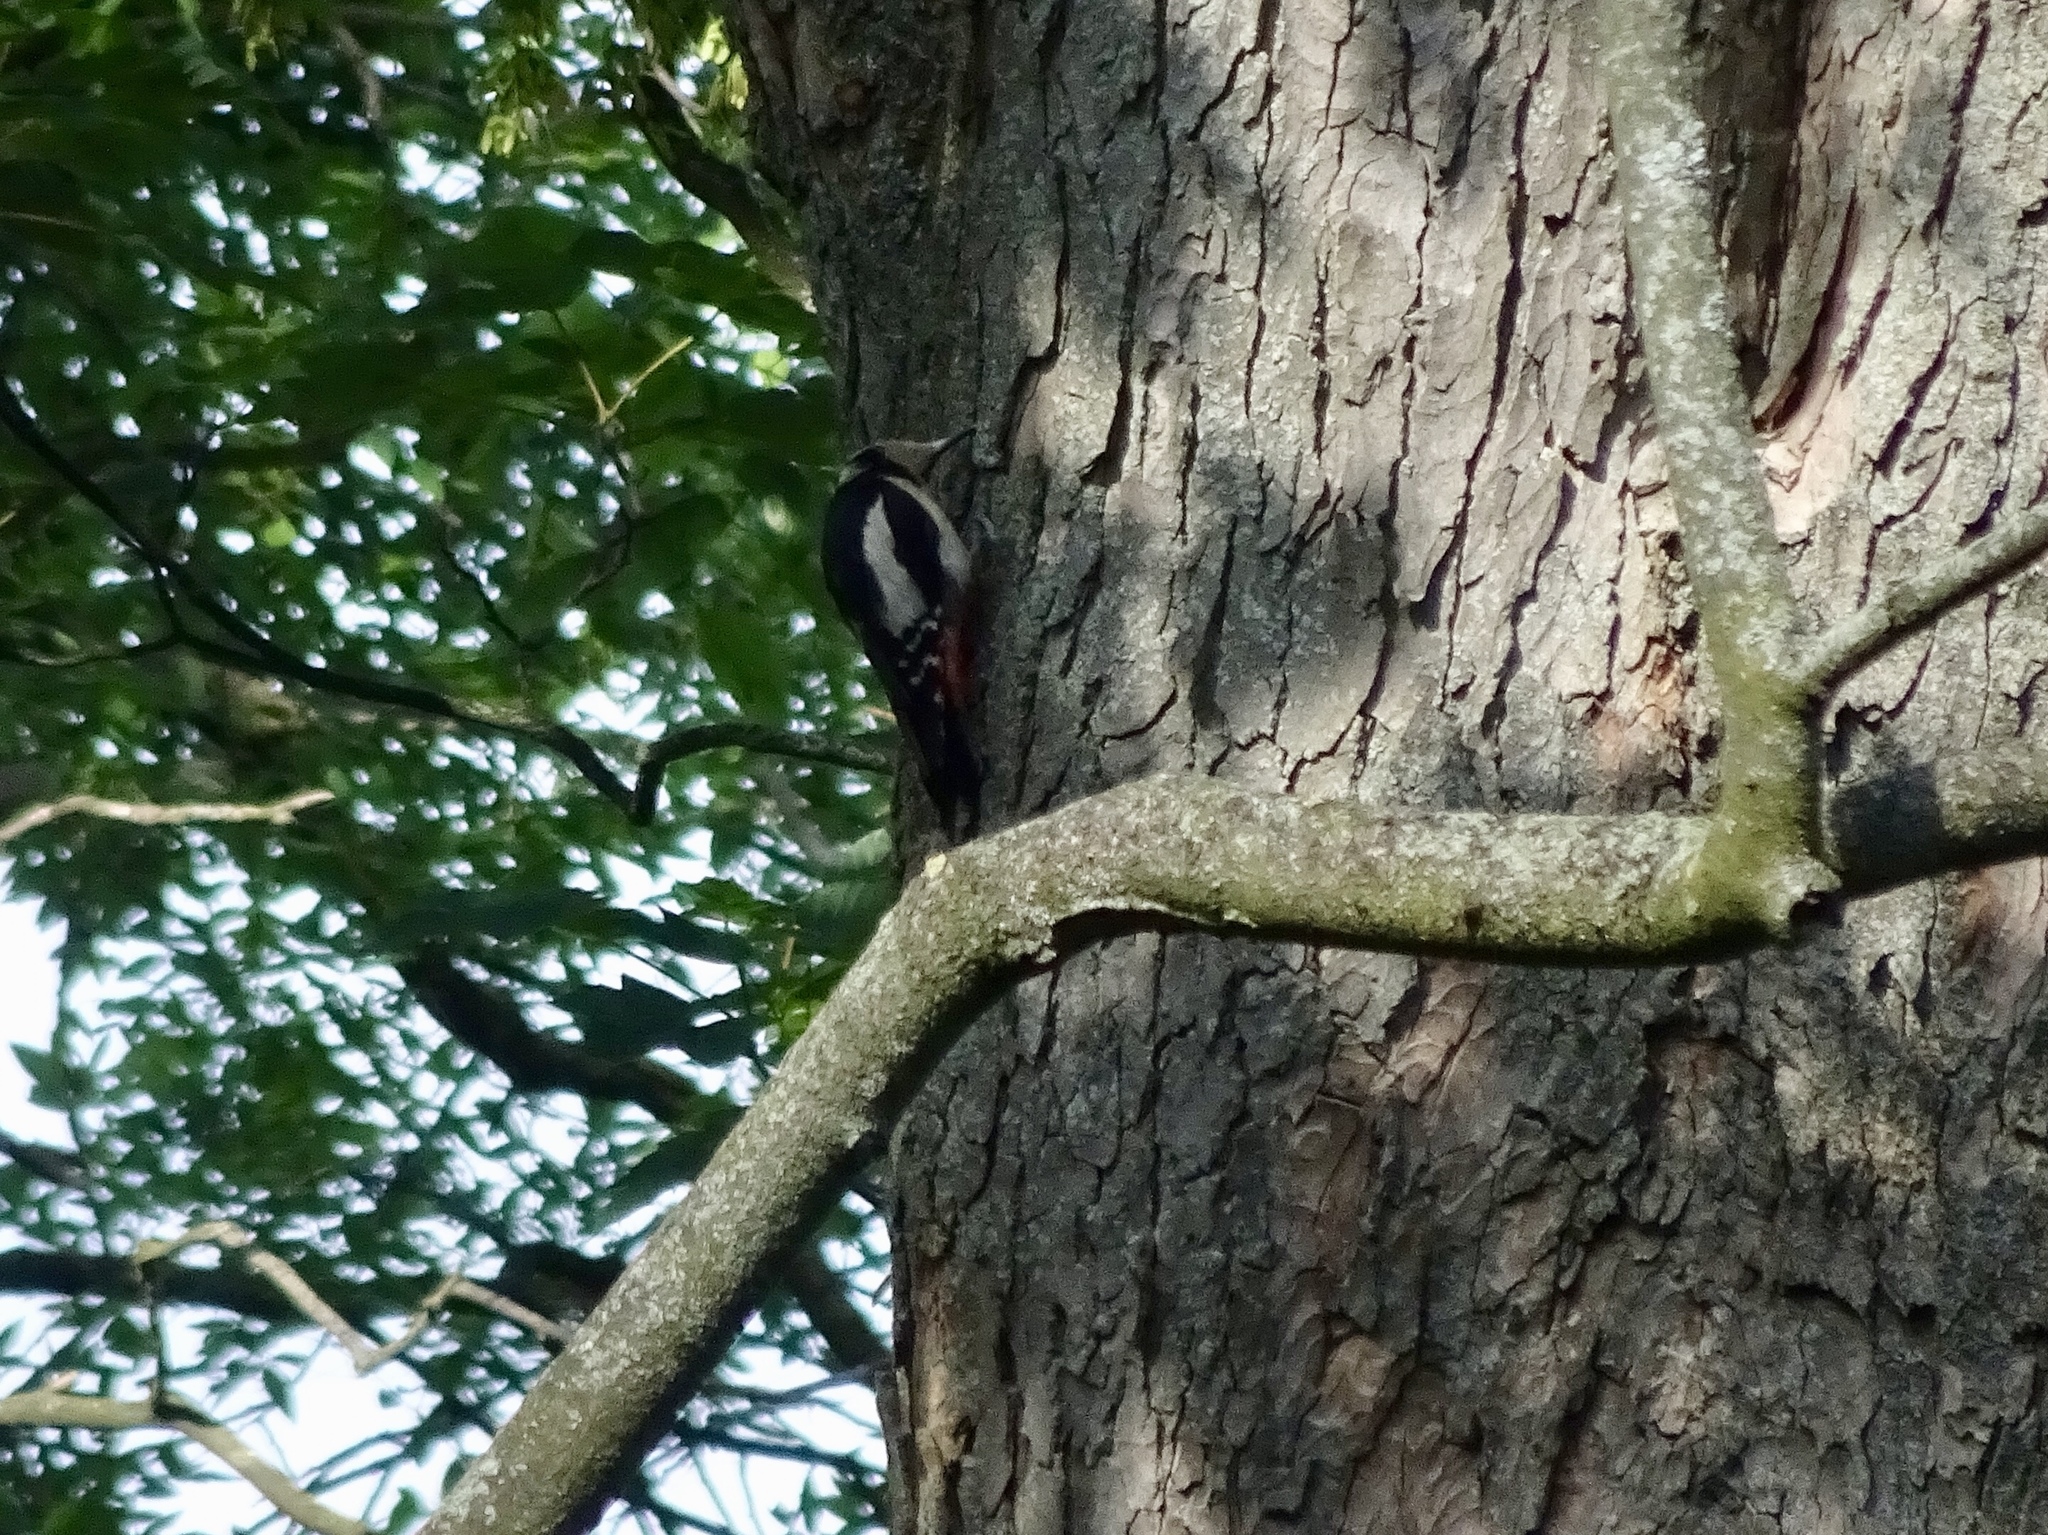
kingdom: Animalia
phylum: Chordata
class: Aves
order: Piciformes
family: Picidae
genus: Dendrocopos
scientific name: Dendrocopos major
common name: Great spotted woodpecker
